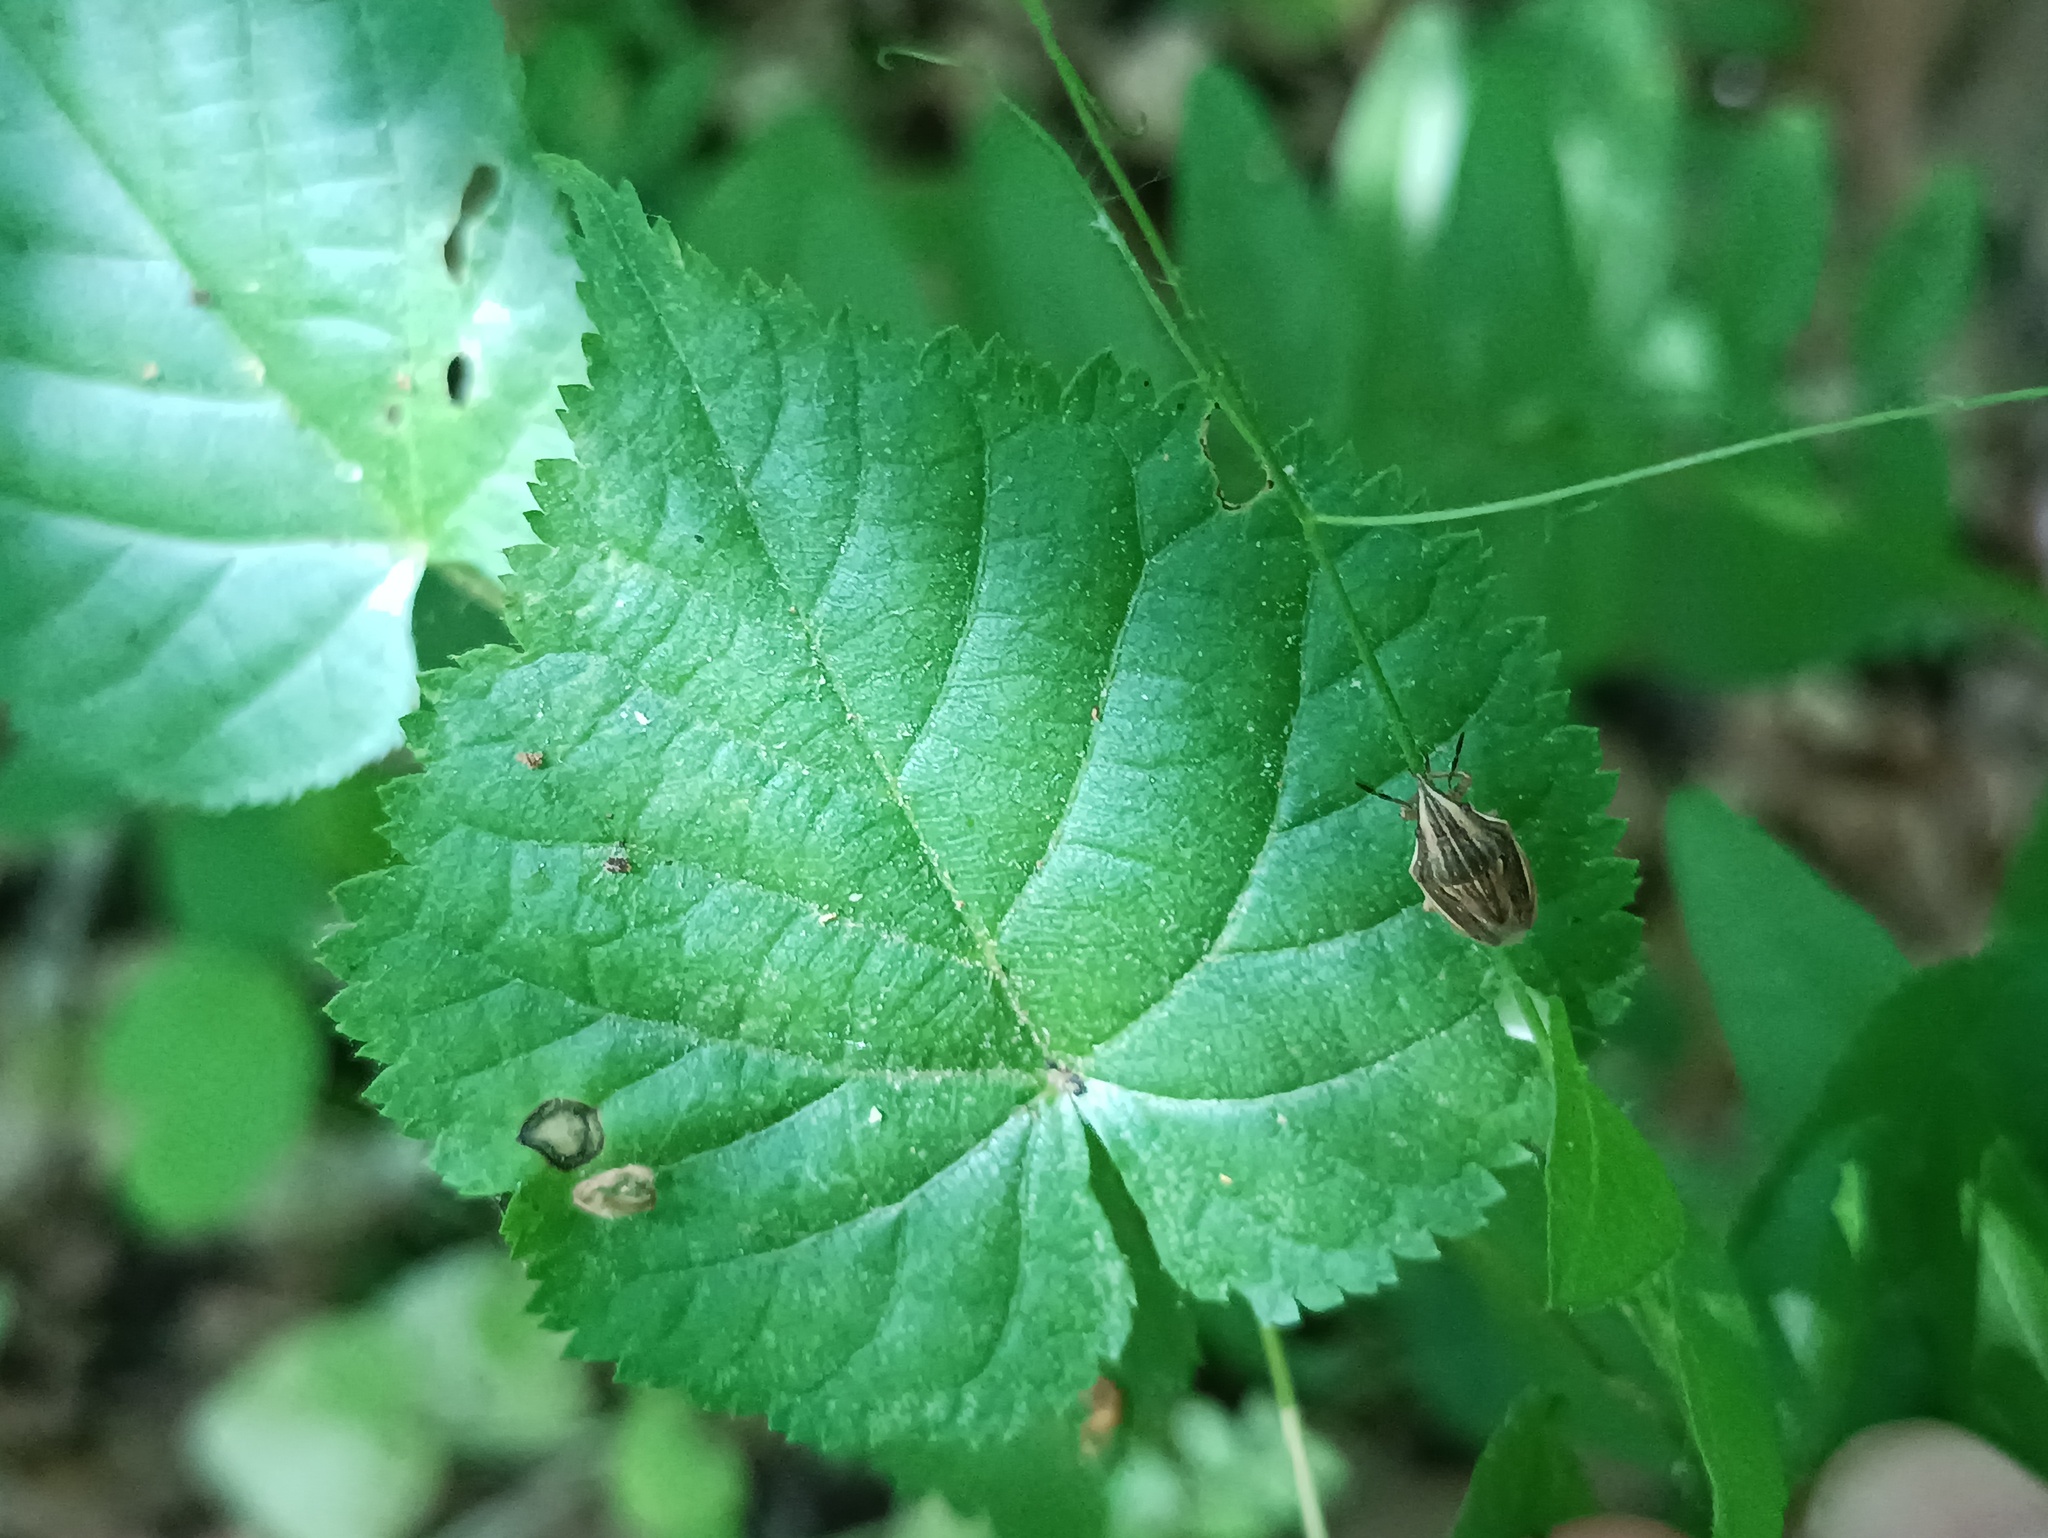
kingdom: Animalia
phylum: Arthropoda
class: Insecta
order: Hemiptera
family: Pentatomidae
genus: Aelia
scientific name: Aelia acuminata
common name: Bishop's mitre
